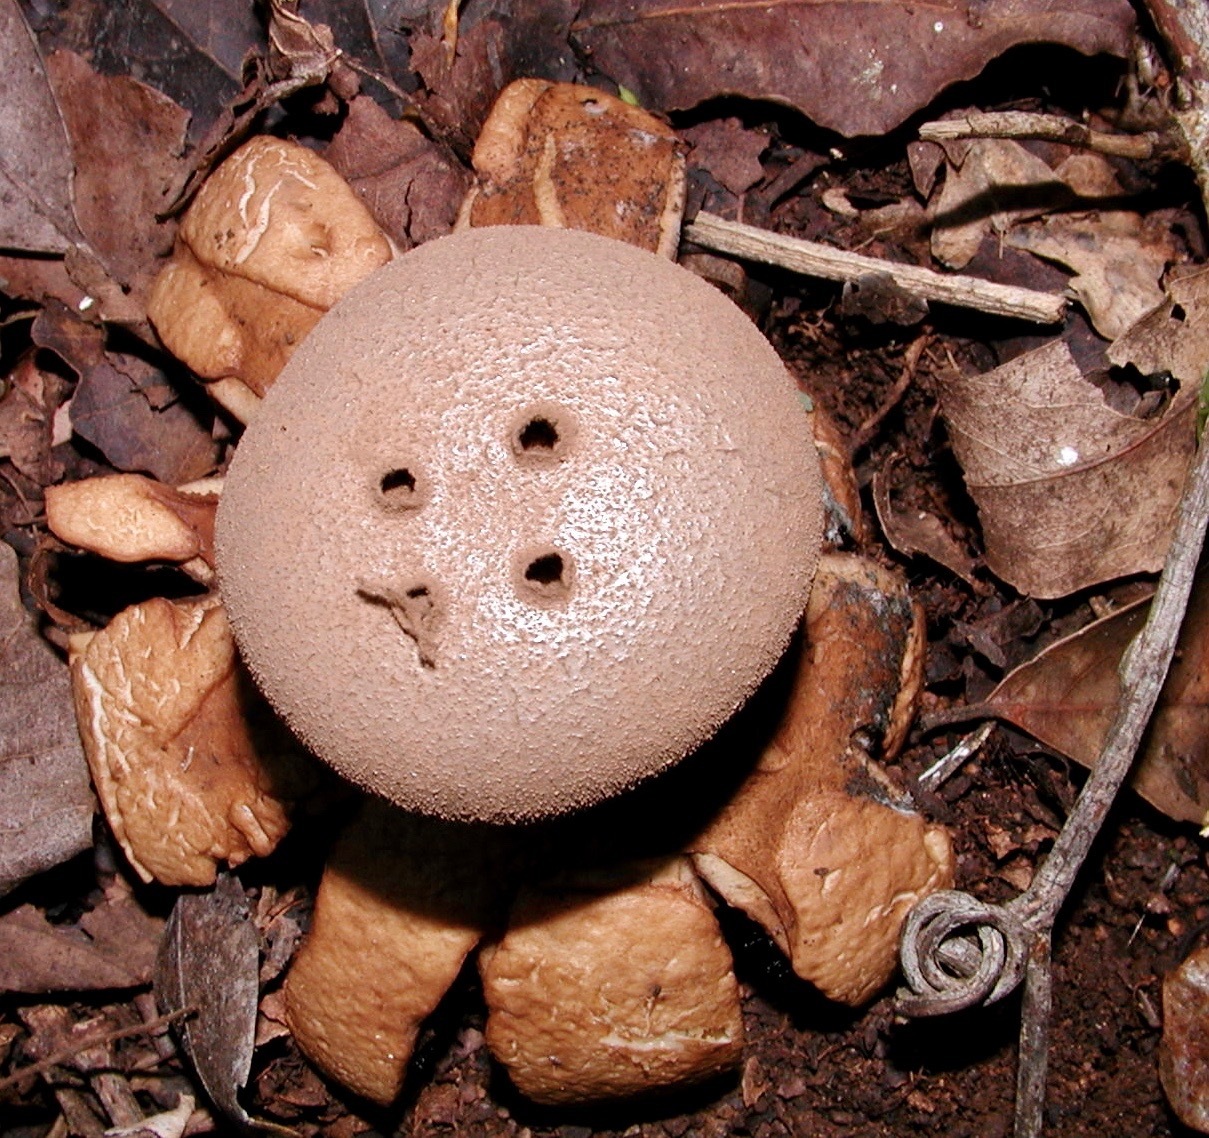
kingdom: Fungi
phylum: Basidiomycota
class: Agaricomycetes
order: Geastrales
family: Geastraceae
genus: Myriostoma
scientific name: Myriostoma capillisporum
